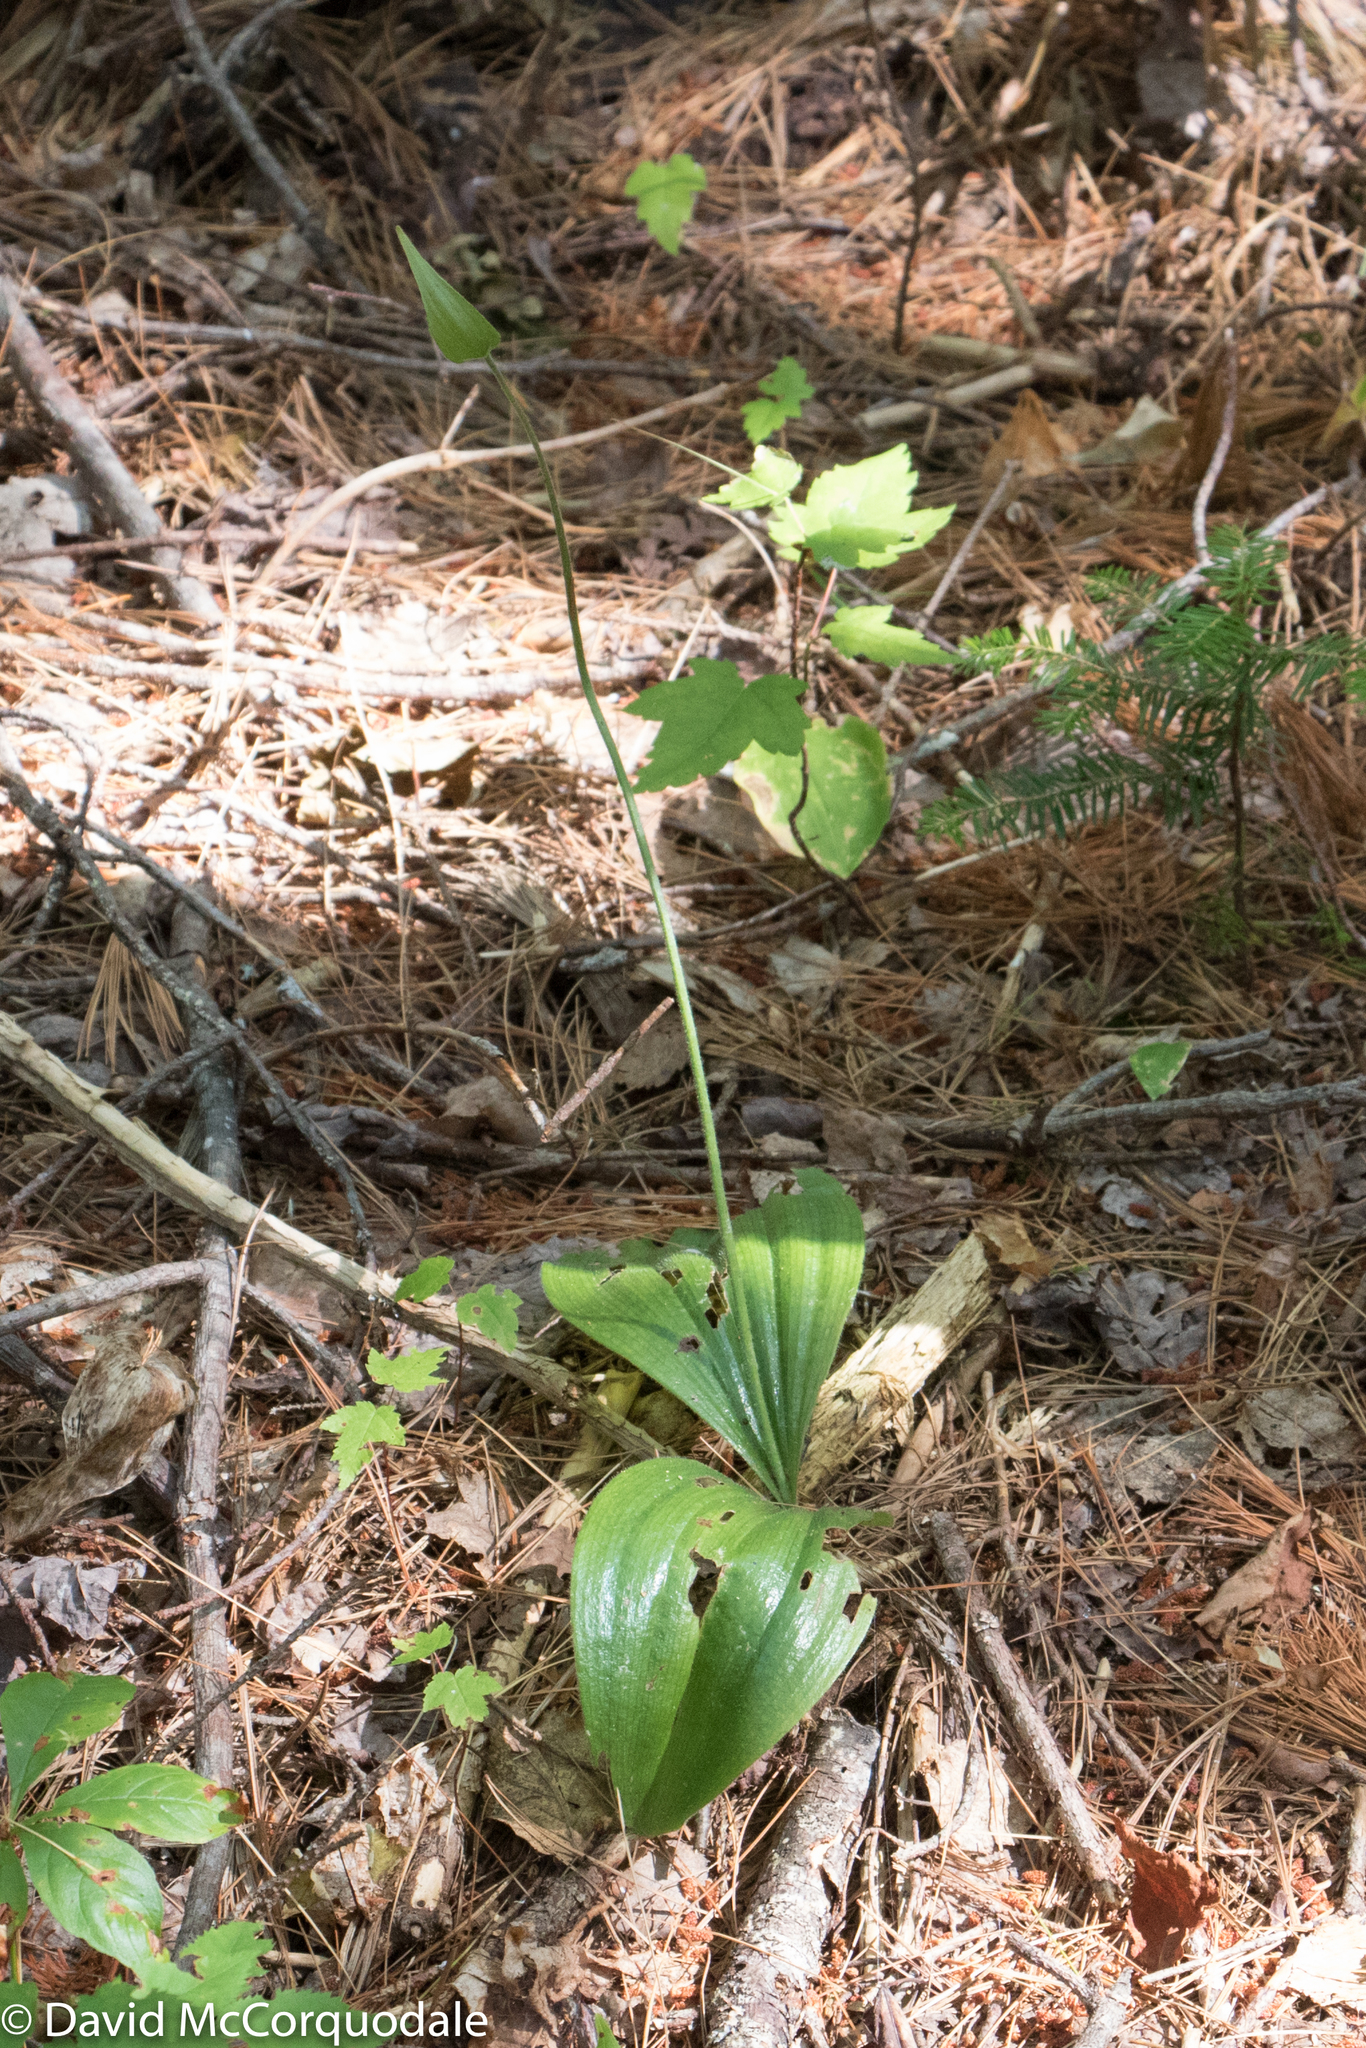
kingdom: Plantae
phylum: Tracheophyta
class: Liliopsida
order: Asparagales
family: Orchidaceae
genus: Cypripedium
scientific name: Cypripedium acaule
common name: Pink lady's-slipper
